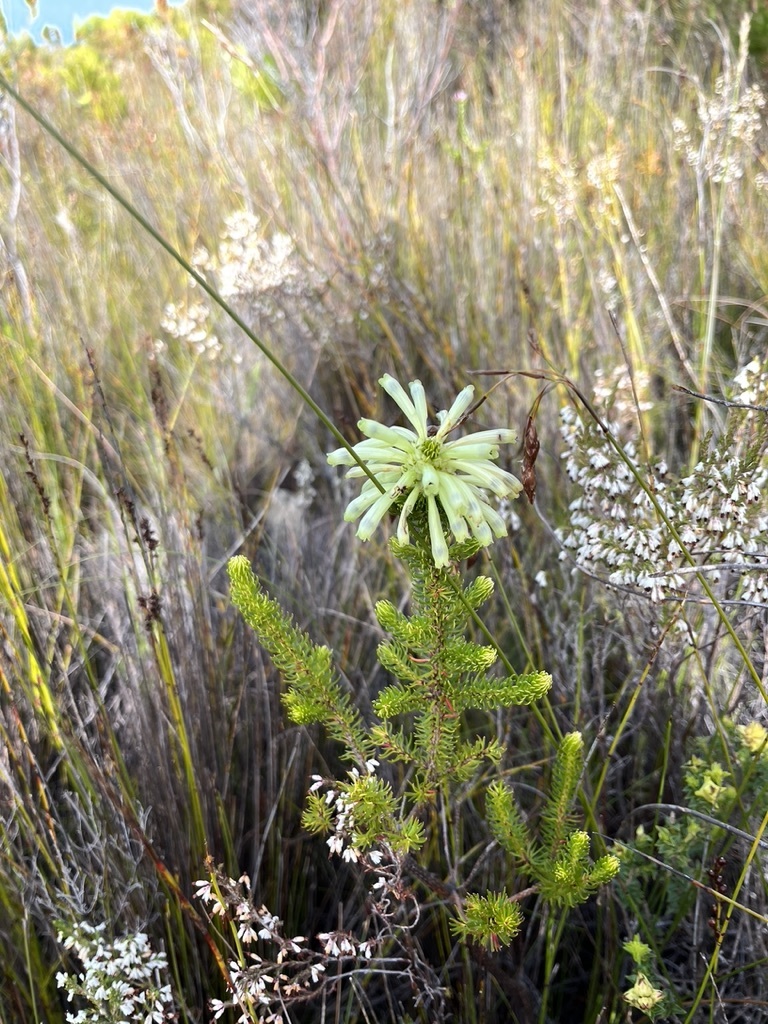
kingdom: Plantae
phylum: Tracheophyta
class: Magnoliopsida
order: Ericales
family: Ericaceae
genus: Erica
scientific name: Erica sessiliflora
